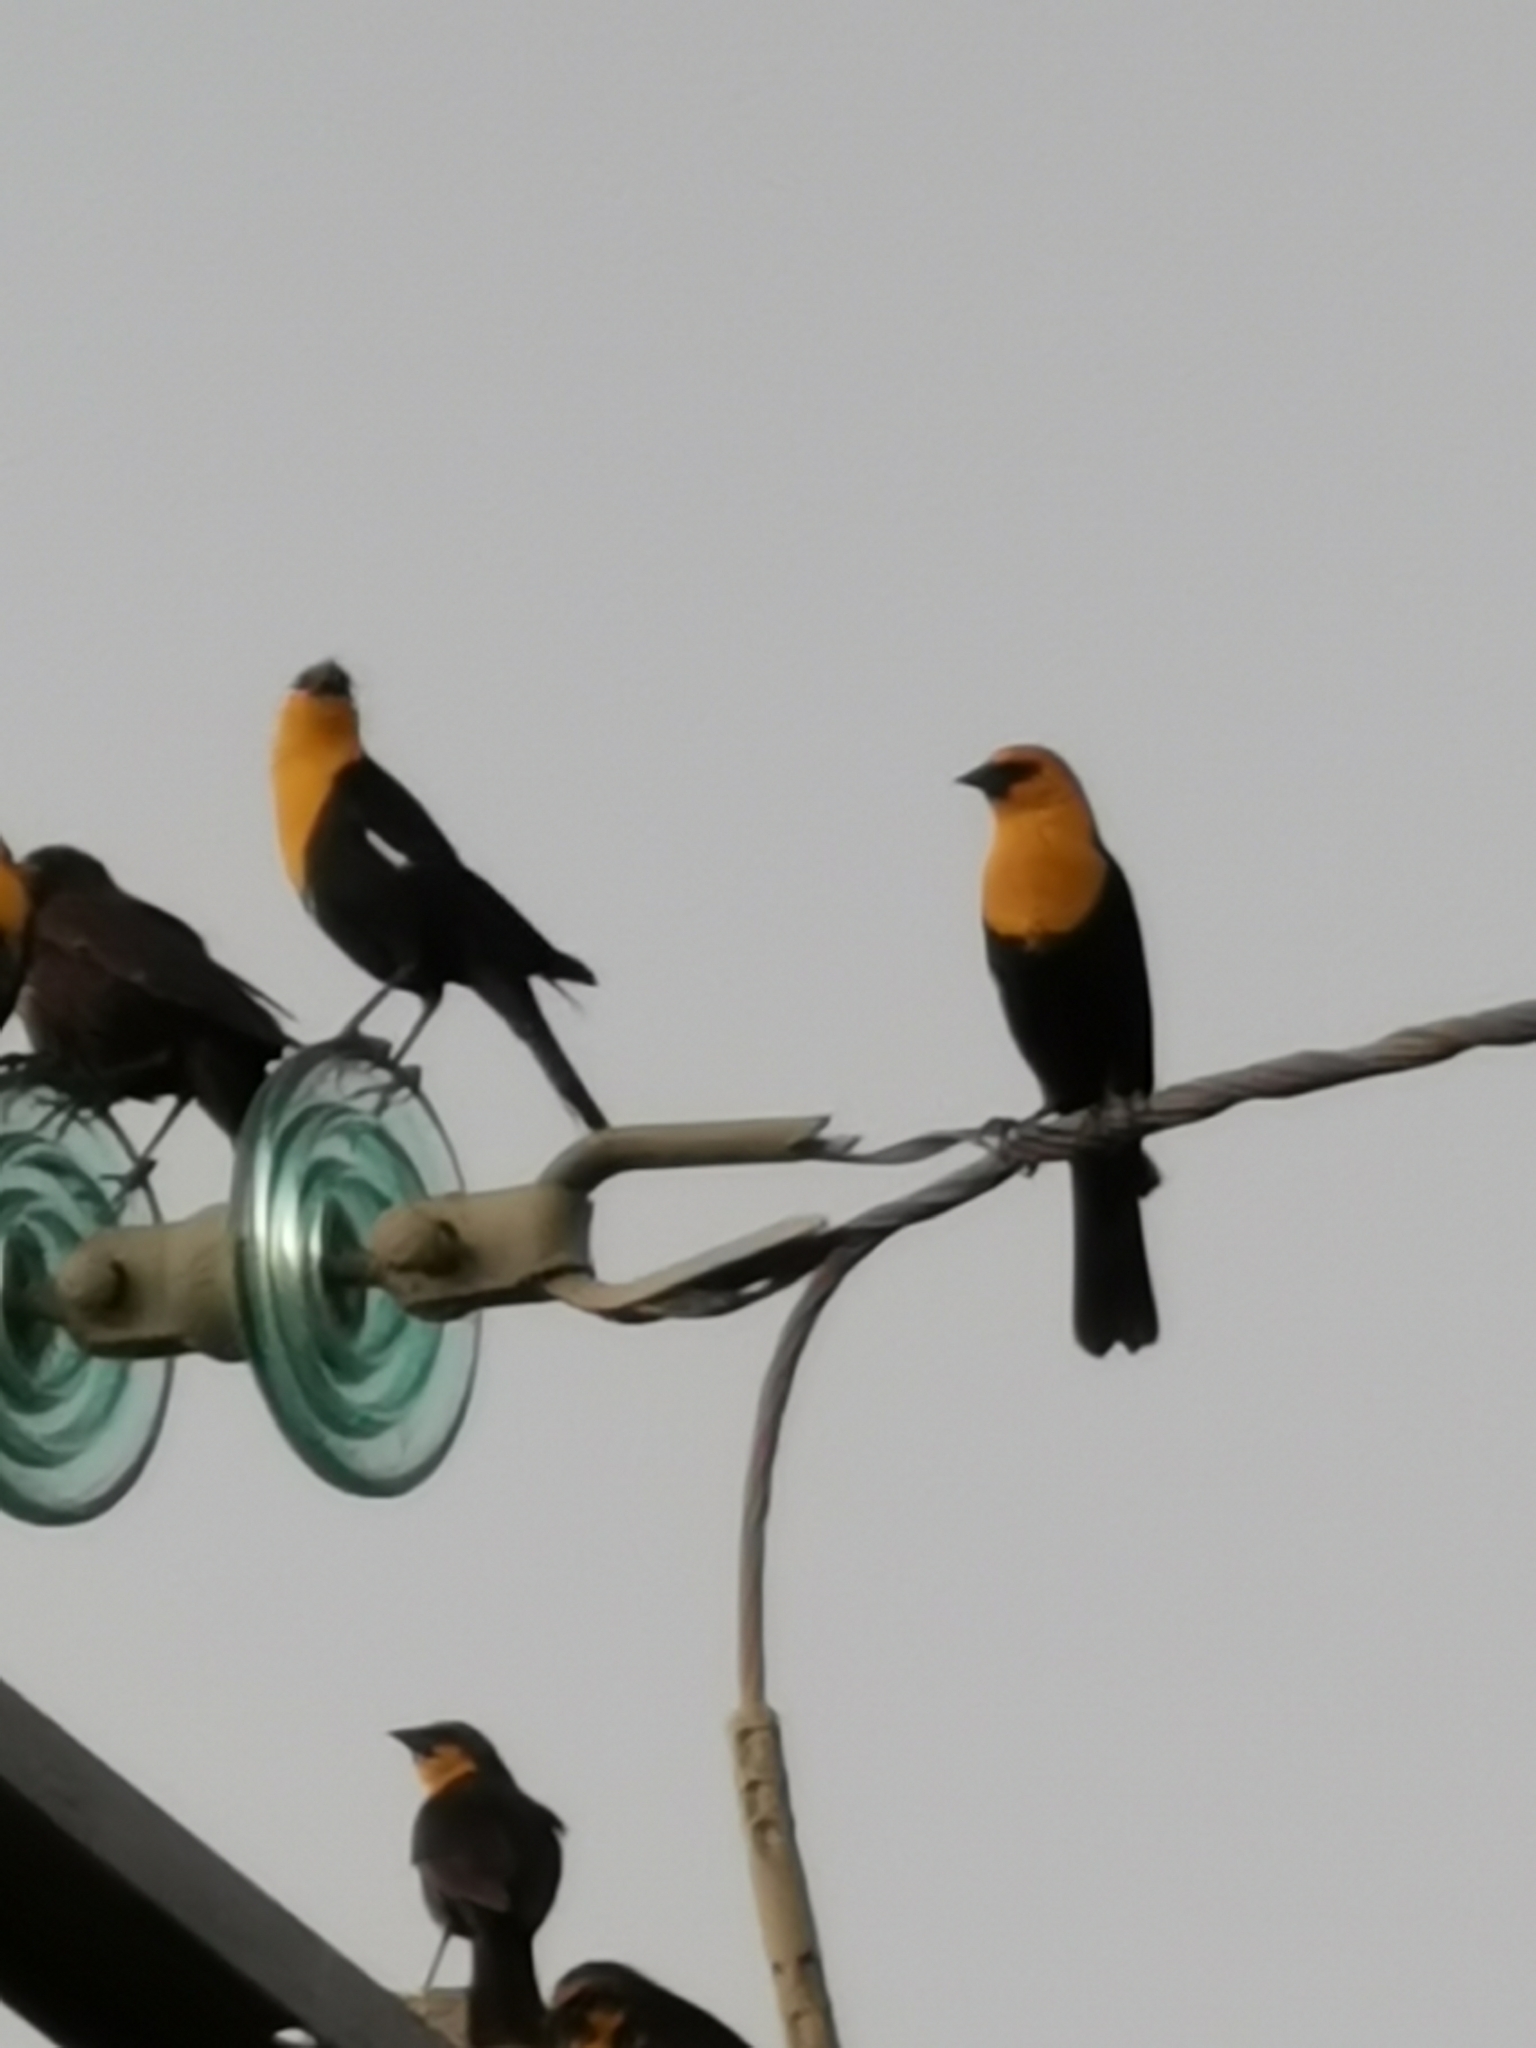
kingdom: Animalia
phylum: Chordata
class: Aves
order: Passeriformes
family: Icteridae
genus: Xanthocephalus
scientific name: Xanthocephalus xanthocephalus
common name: Yellow-headed blackbird
